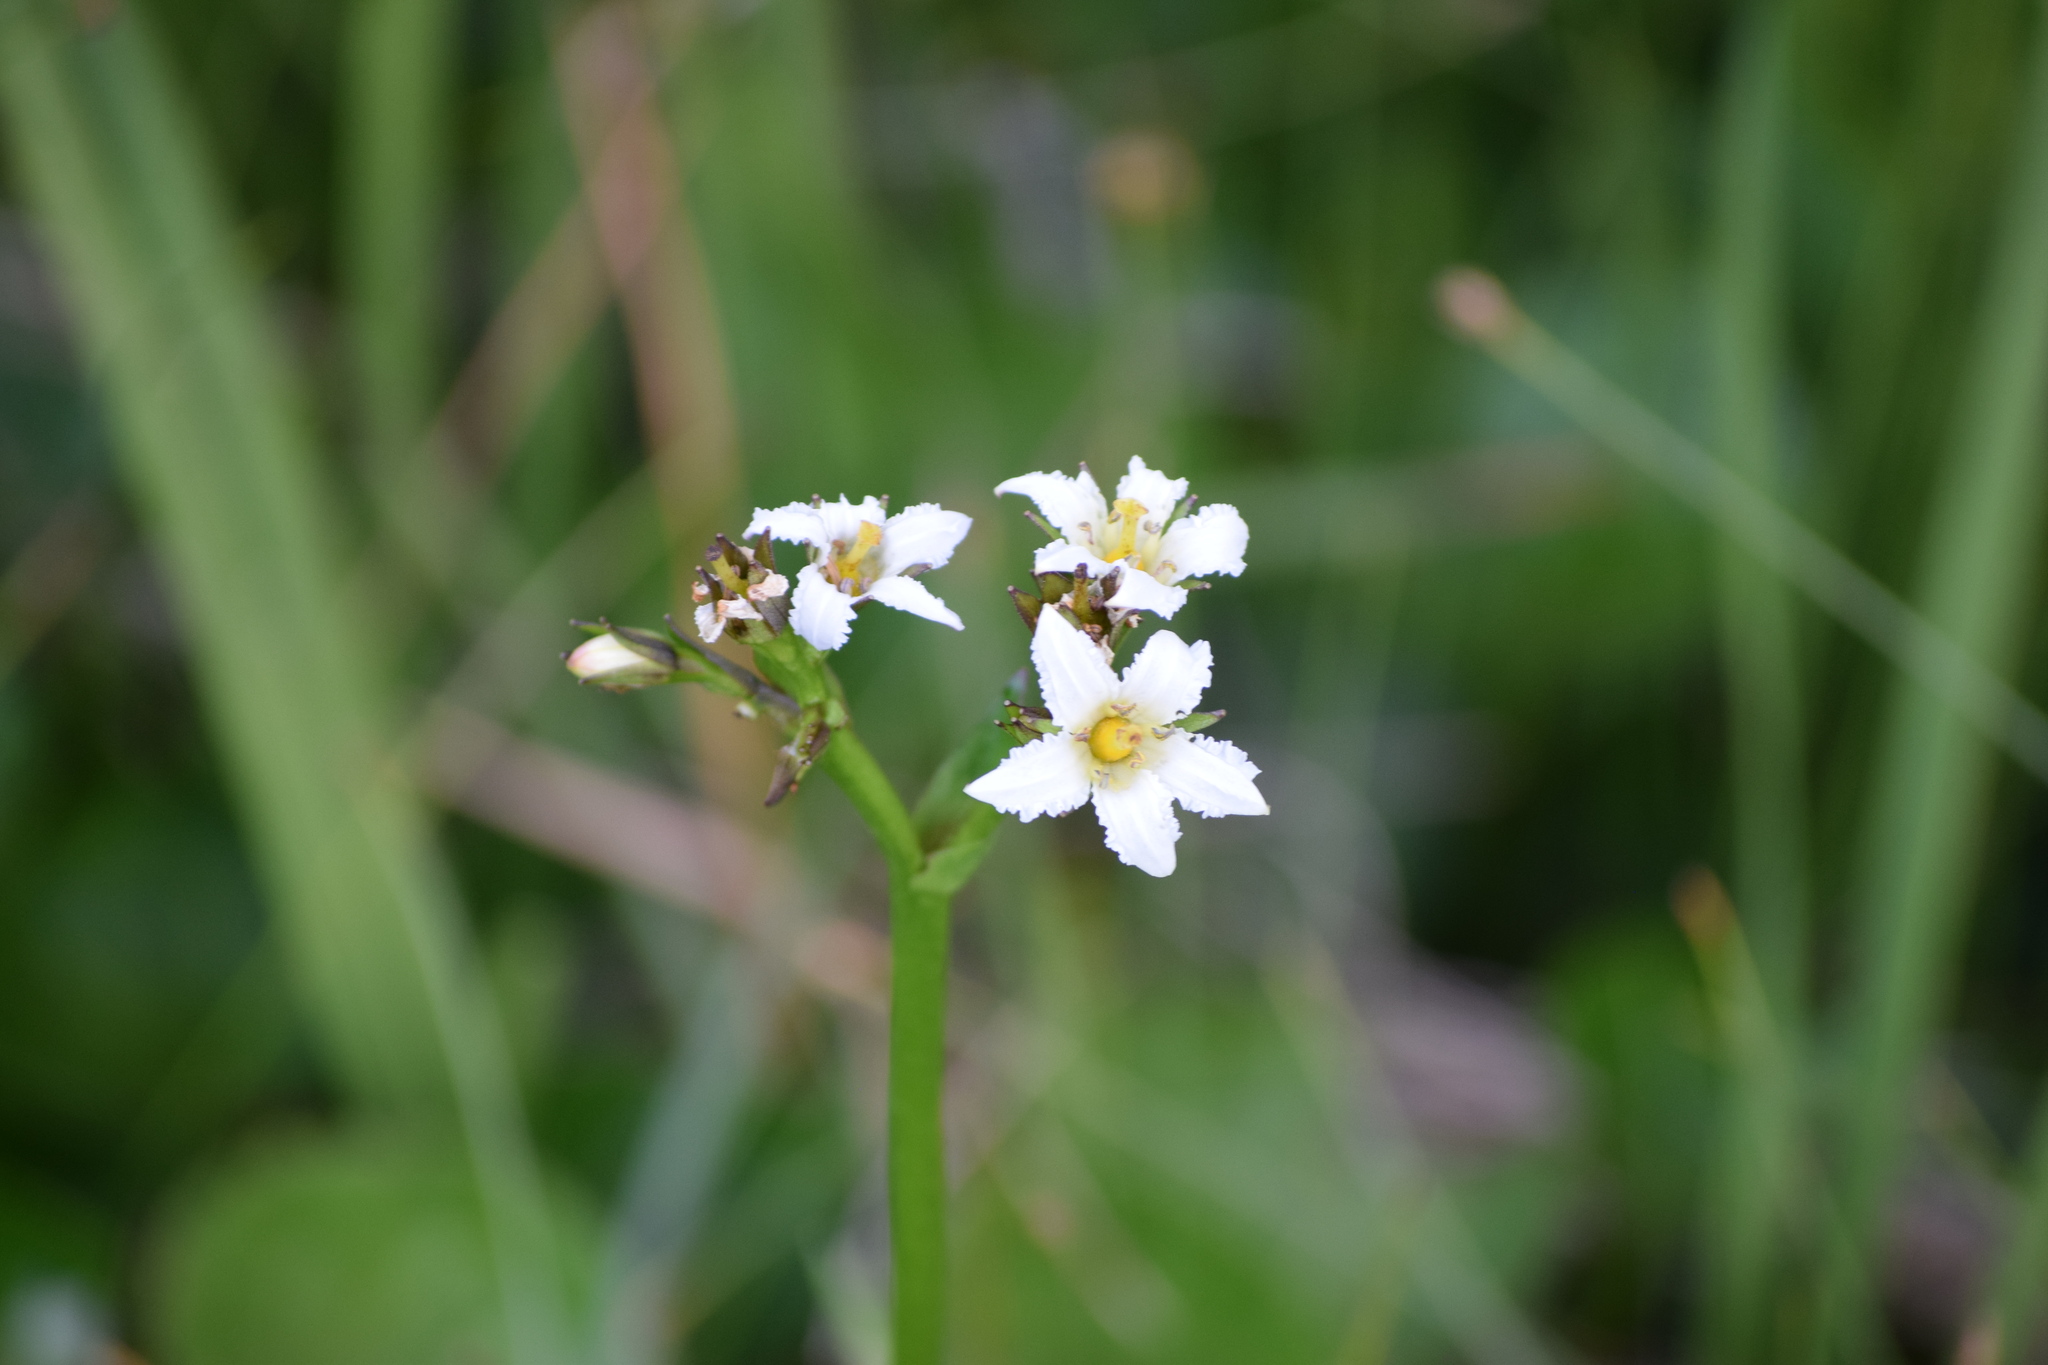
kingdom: Plantae
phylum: Tracheophyta
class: Magnoliopsida
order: Asterales
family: Menyanthaceae
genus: Nephrophyllidium
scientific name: Nephrophyllidium crista-galli
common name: Deer-cabbage
